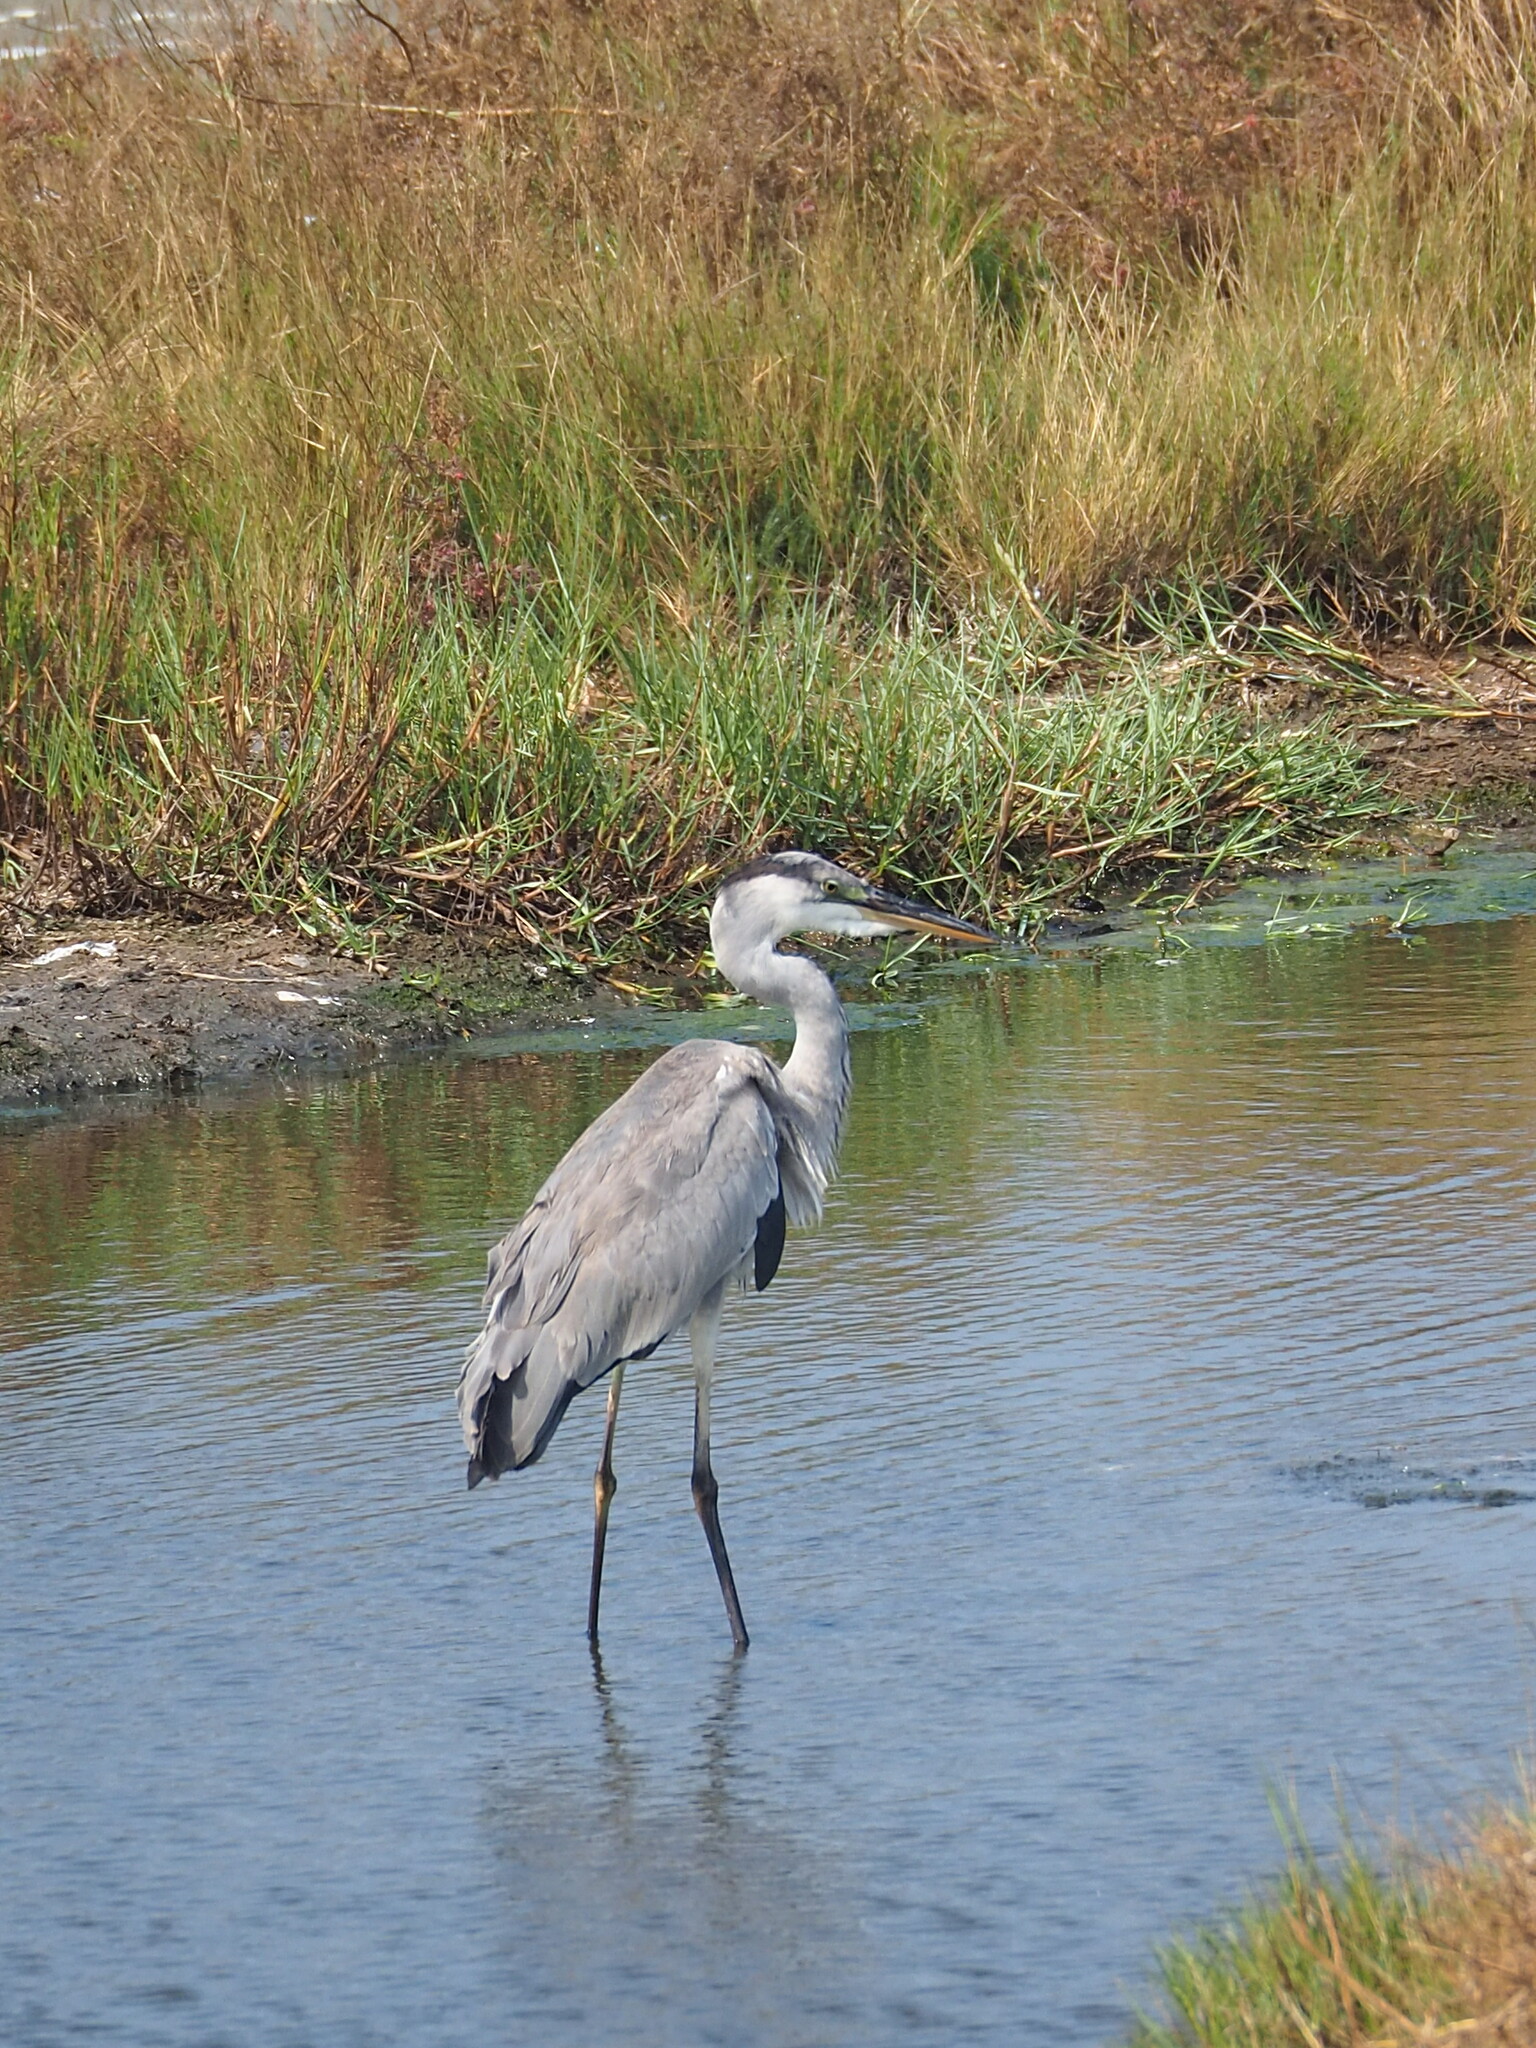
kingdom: Animalia
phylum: Chordata
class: Aves
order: Pelecaniformes
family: Ardeidae
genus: Ardea
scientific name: Ardea cinerea
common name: Grey heron
